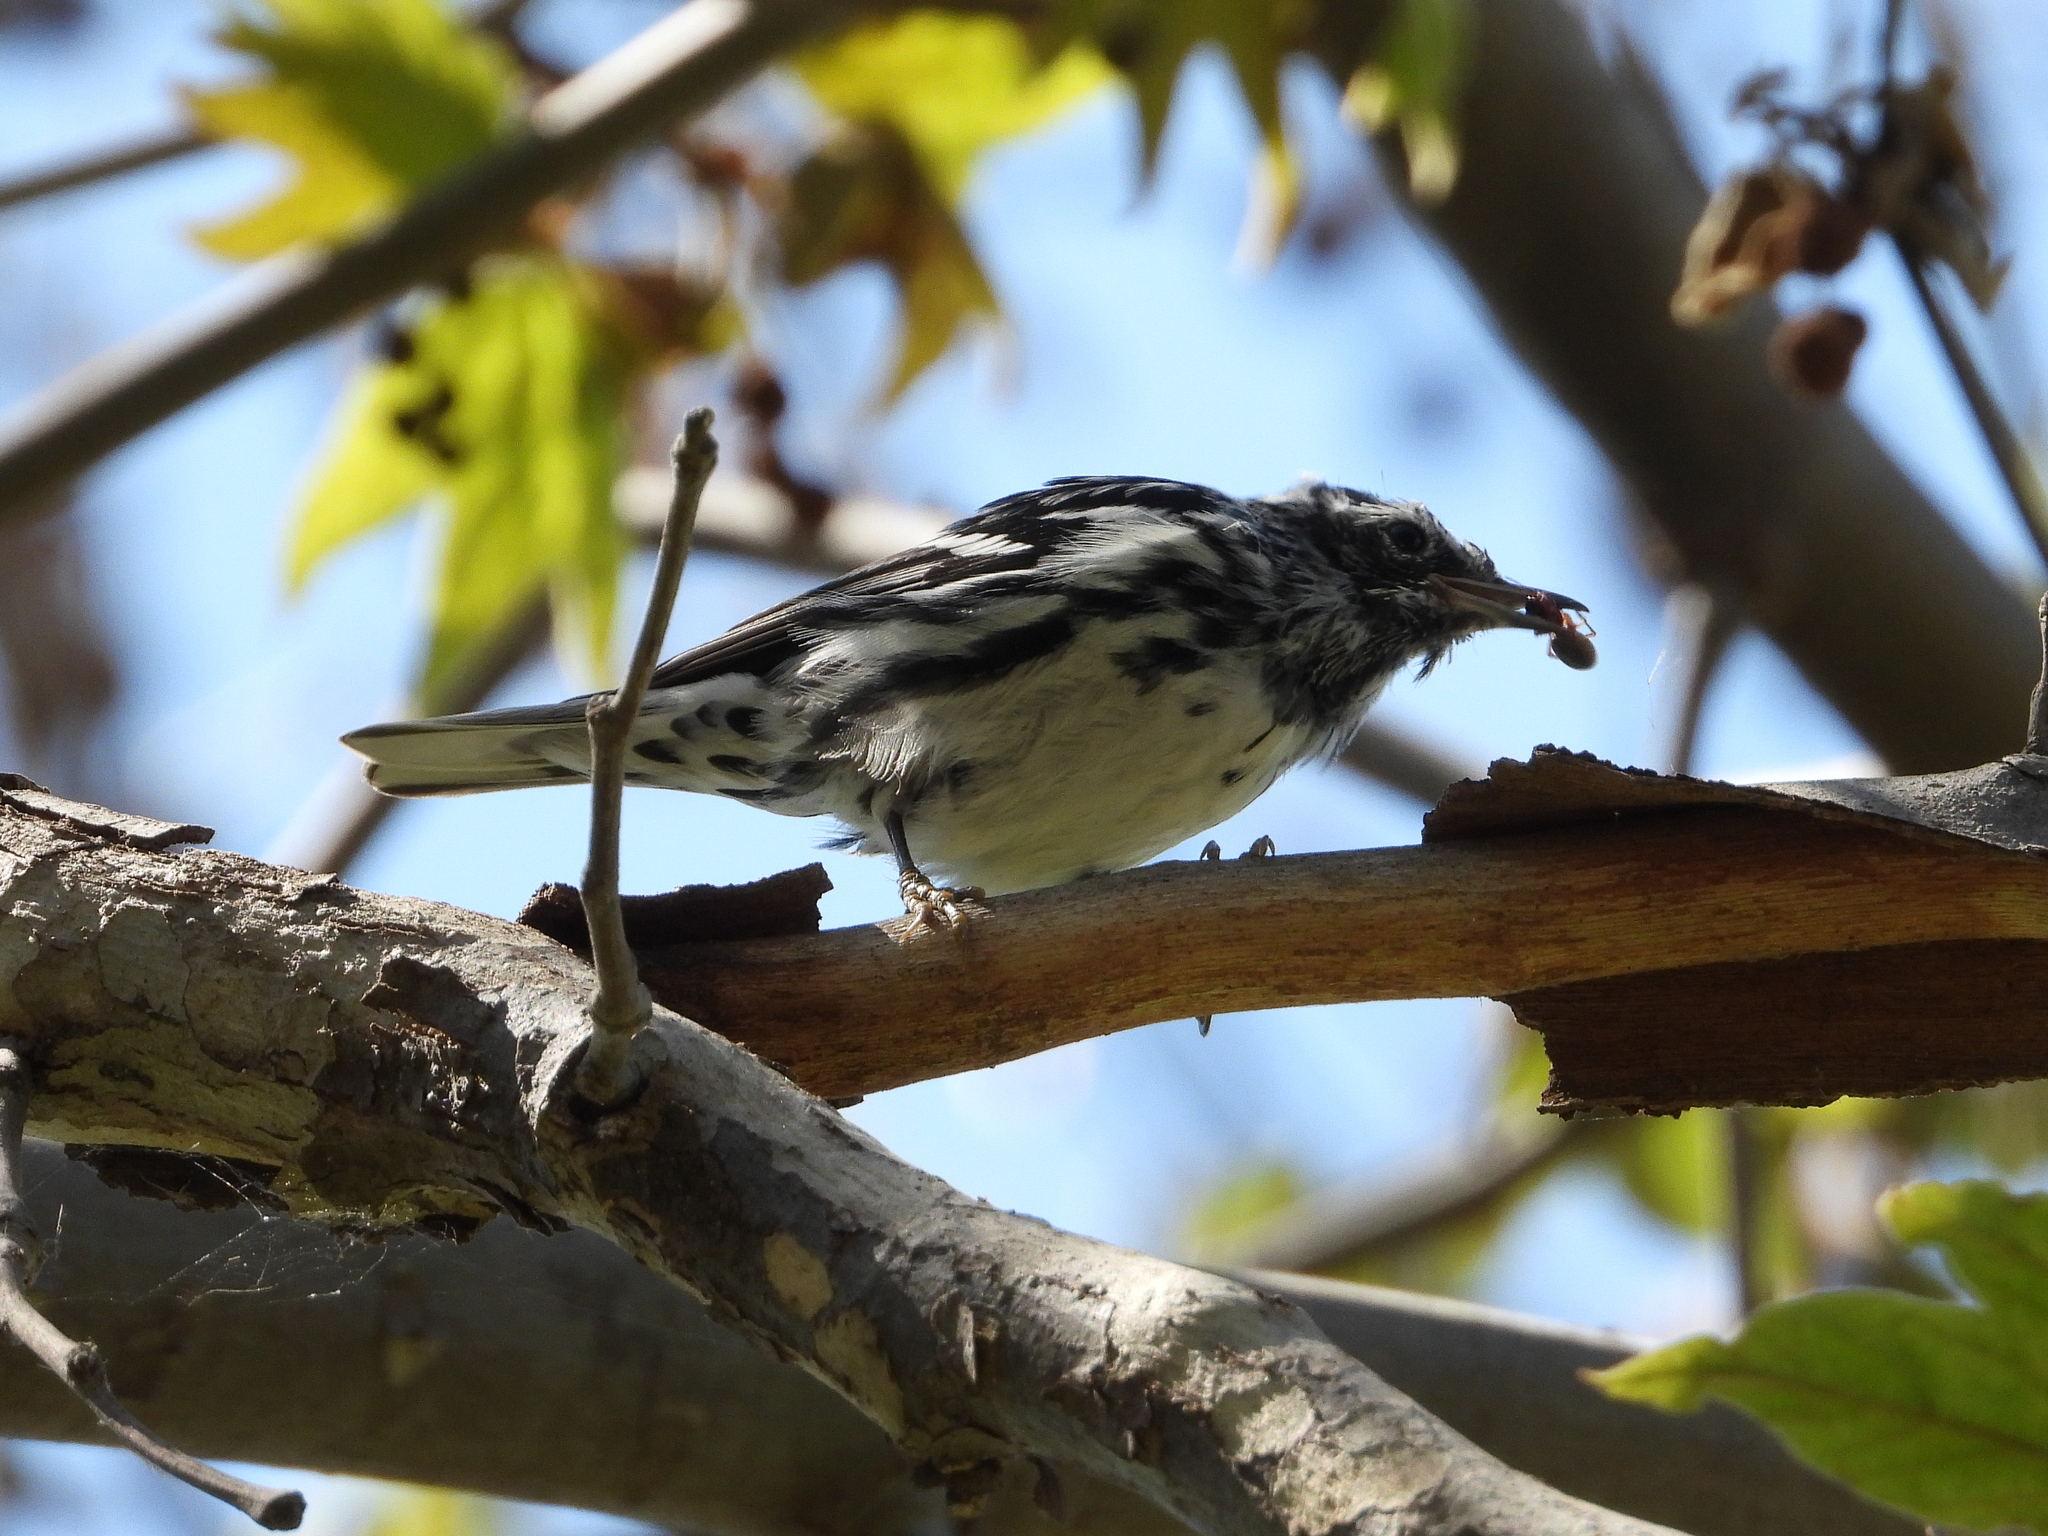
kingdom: Animalia
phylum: Chordata
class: Aves
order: Passeriformes
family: Parulidae
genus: Mniotilta
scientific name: Mniotilta varia
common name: Black-and-white warbler
